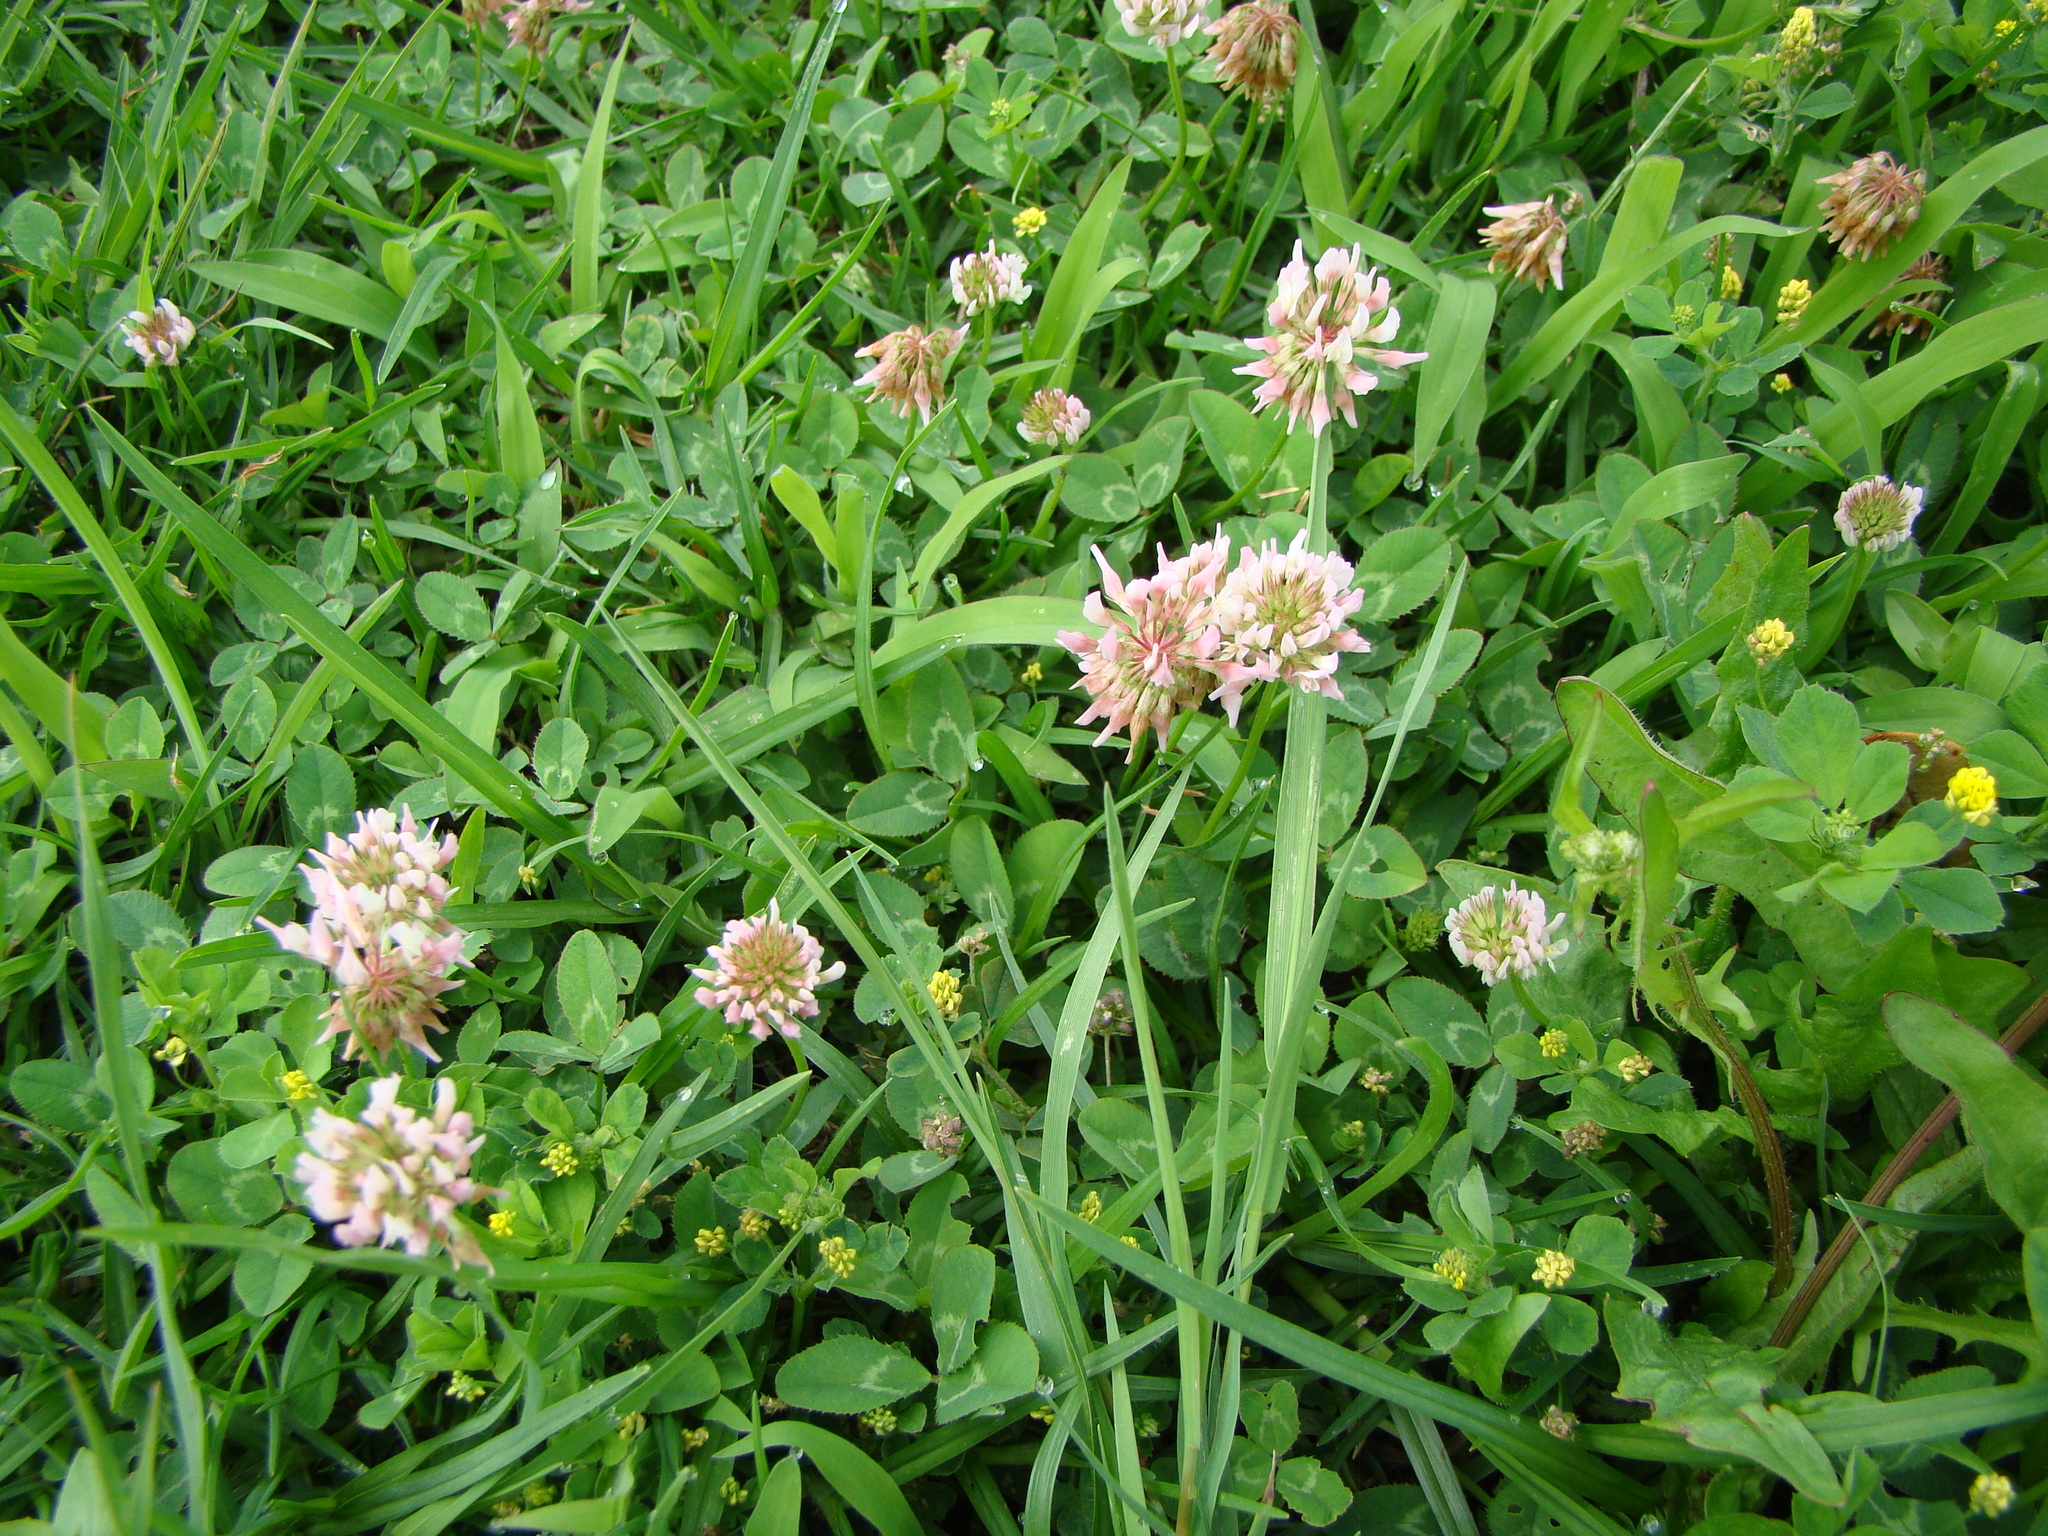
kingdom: Plantae
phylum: Tracheophyta
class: Magnoliopsida
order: Fabales
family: Fabaceae
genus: Trifolium
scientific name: Trifolium repens
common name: White clover
